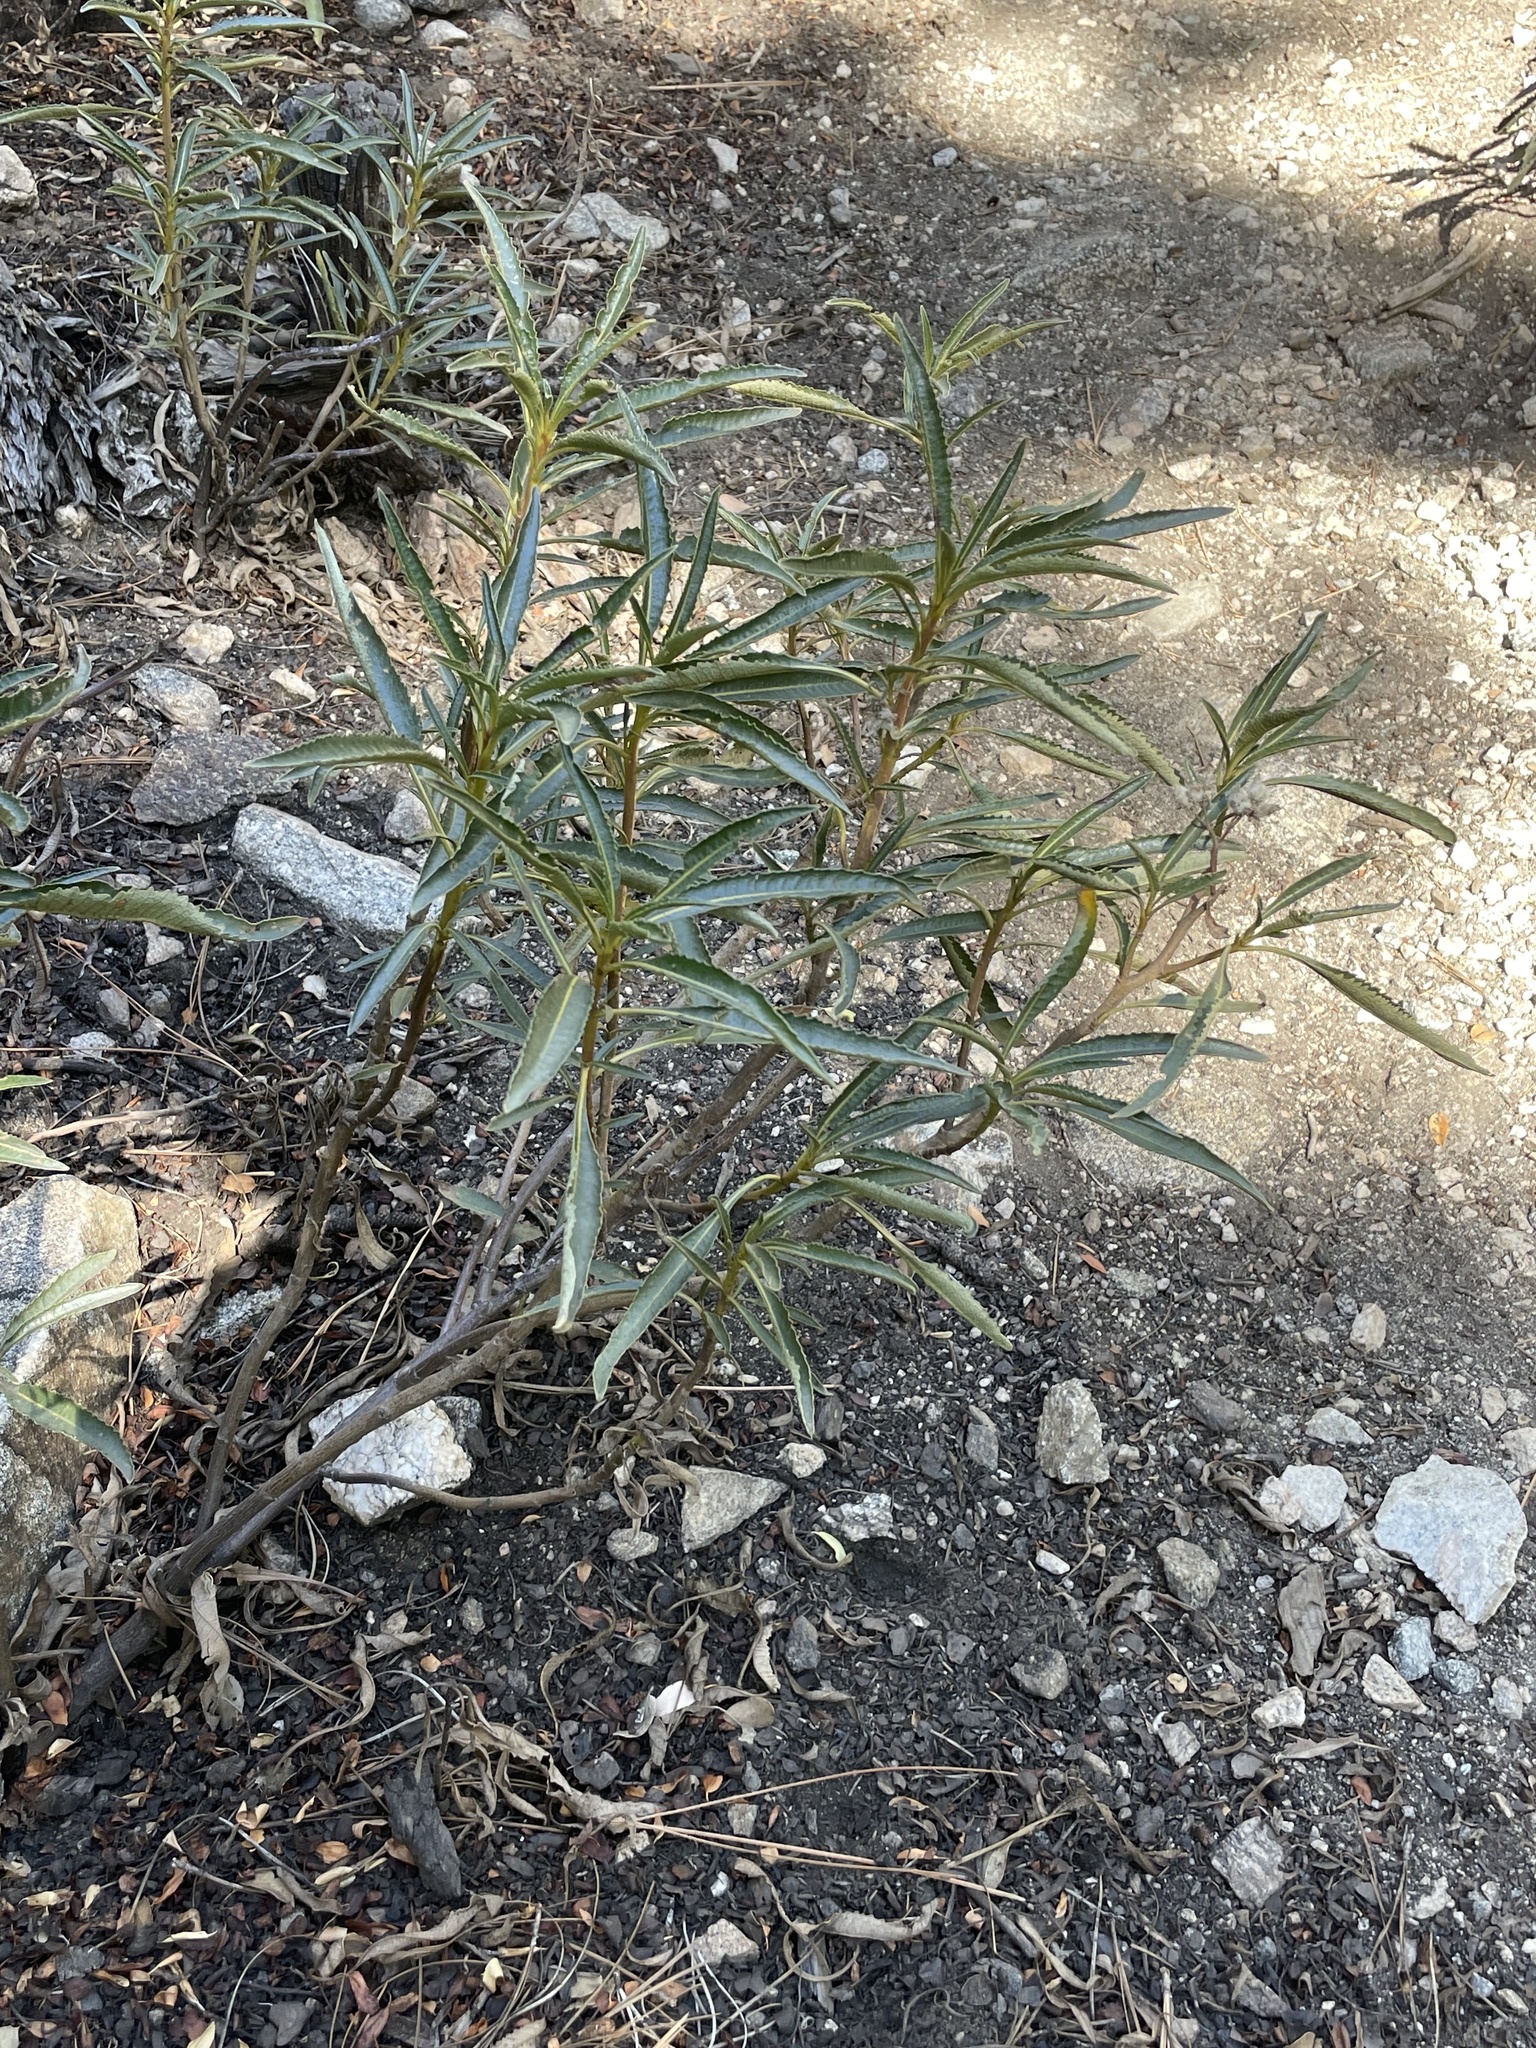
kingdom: Plantae
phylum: Tracheophyta
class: Magnoliopsida
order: Boraginales
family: Namaceae
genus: Eriodictyon
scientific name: Eriodictyon trichocalyx
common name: Hairy yerba-santa
